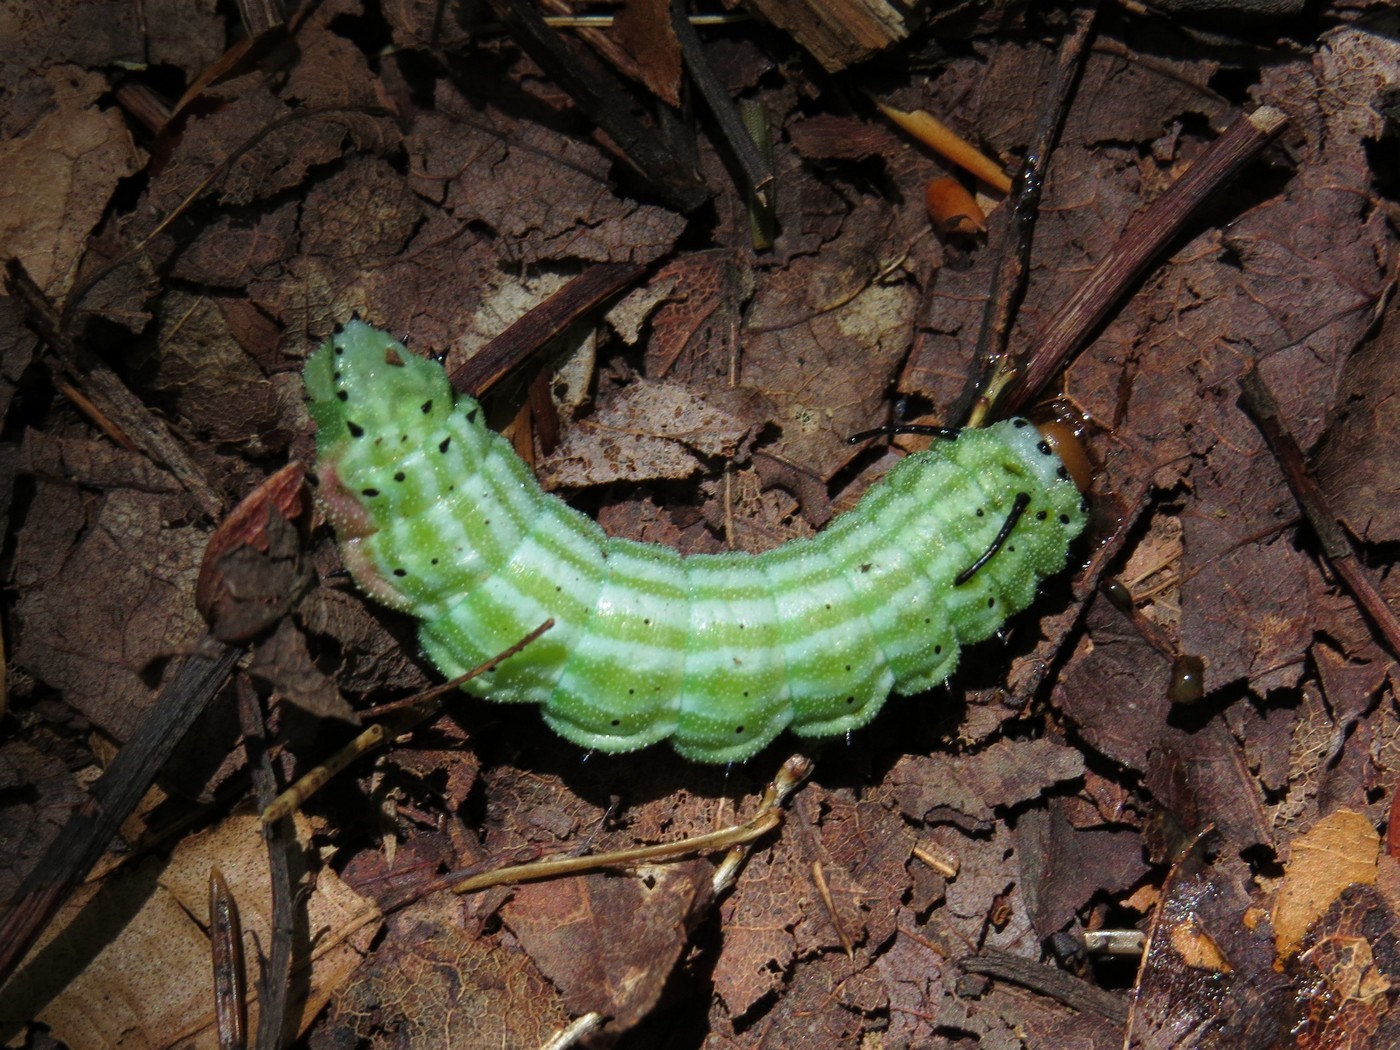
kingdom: Animalia
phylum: Arthropoda
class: Insecta
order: Lepidoptera
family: Saturniidae
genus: Dryocampa
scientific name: Dryocampa rubicunda
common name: Rosy maple moth
